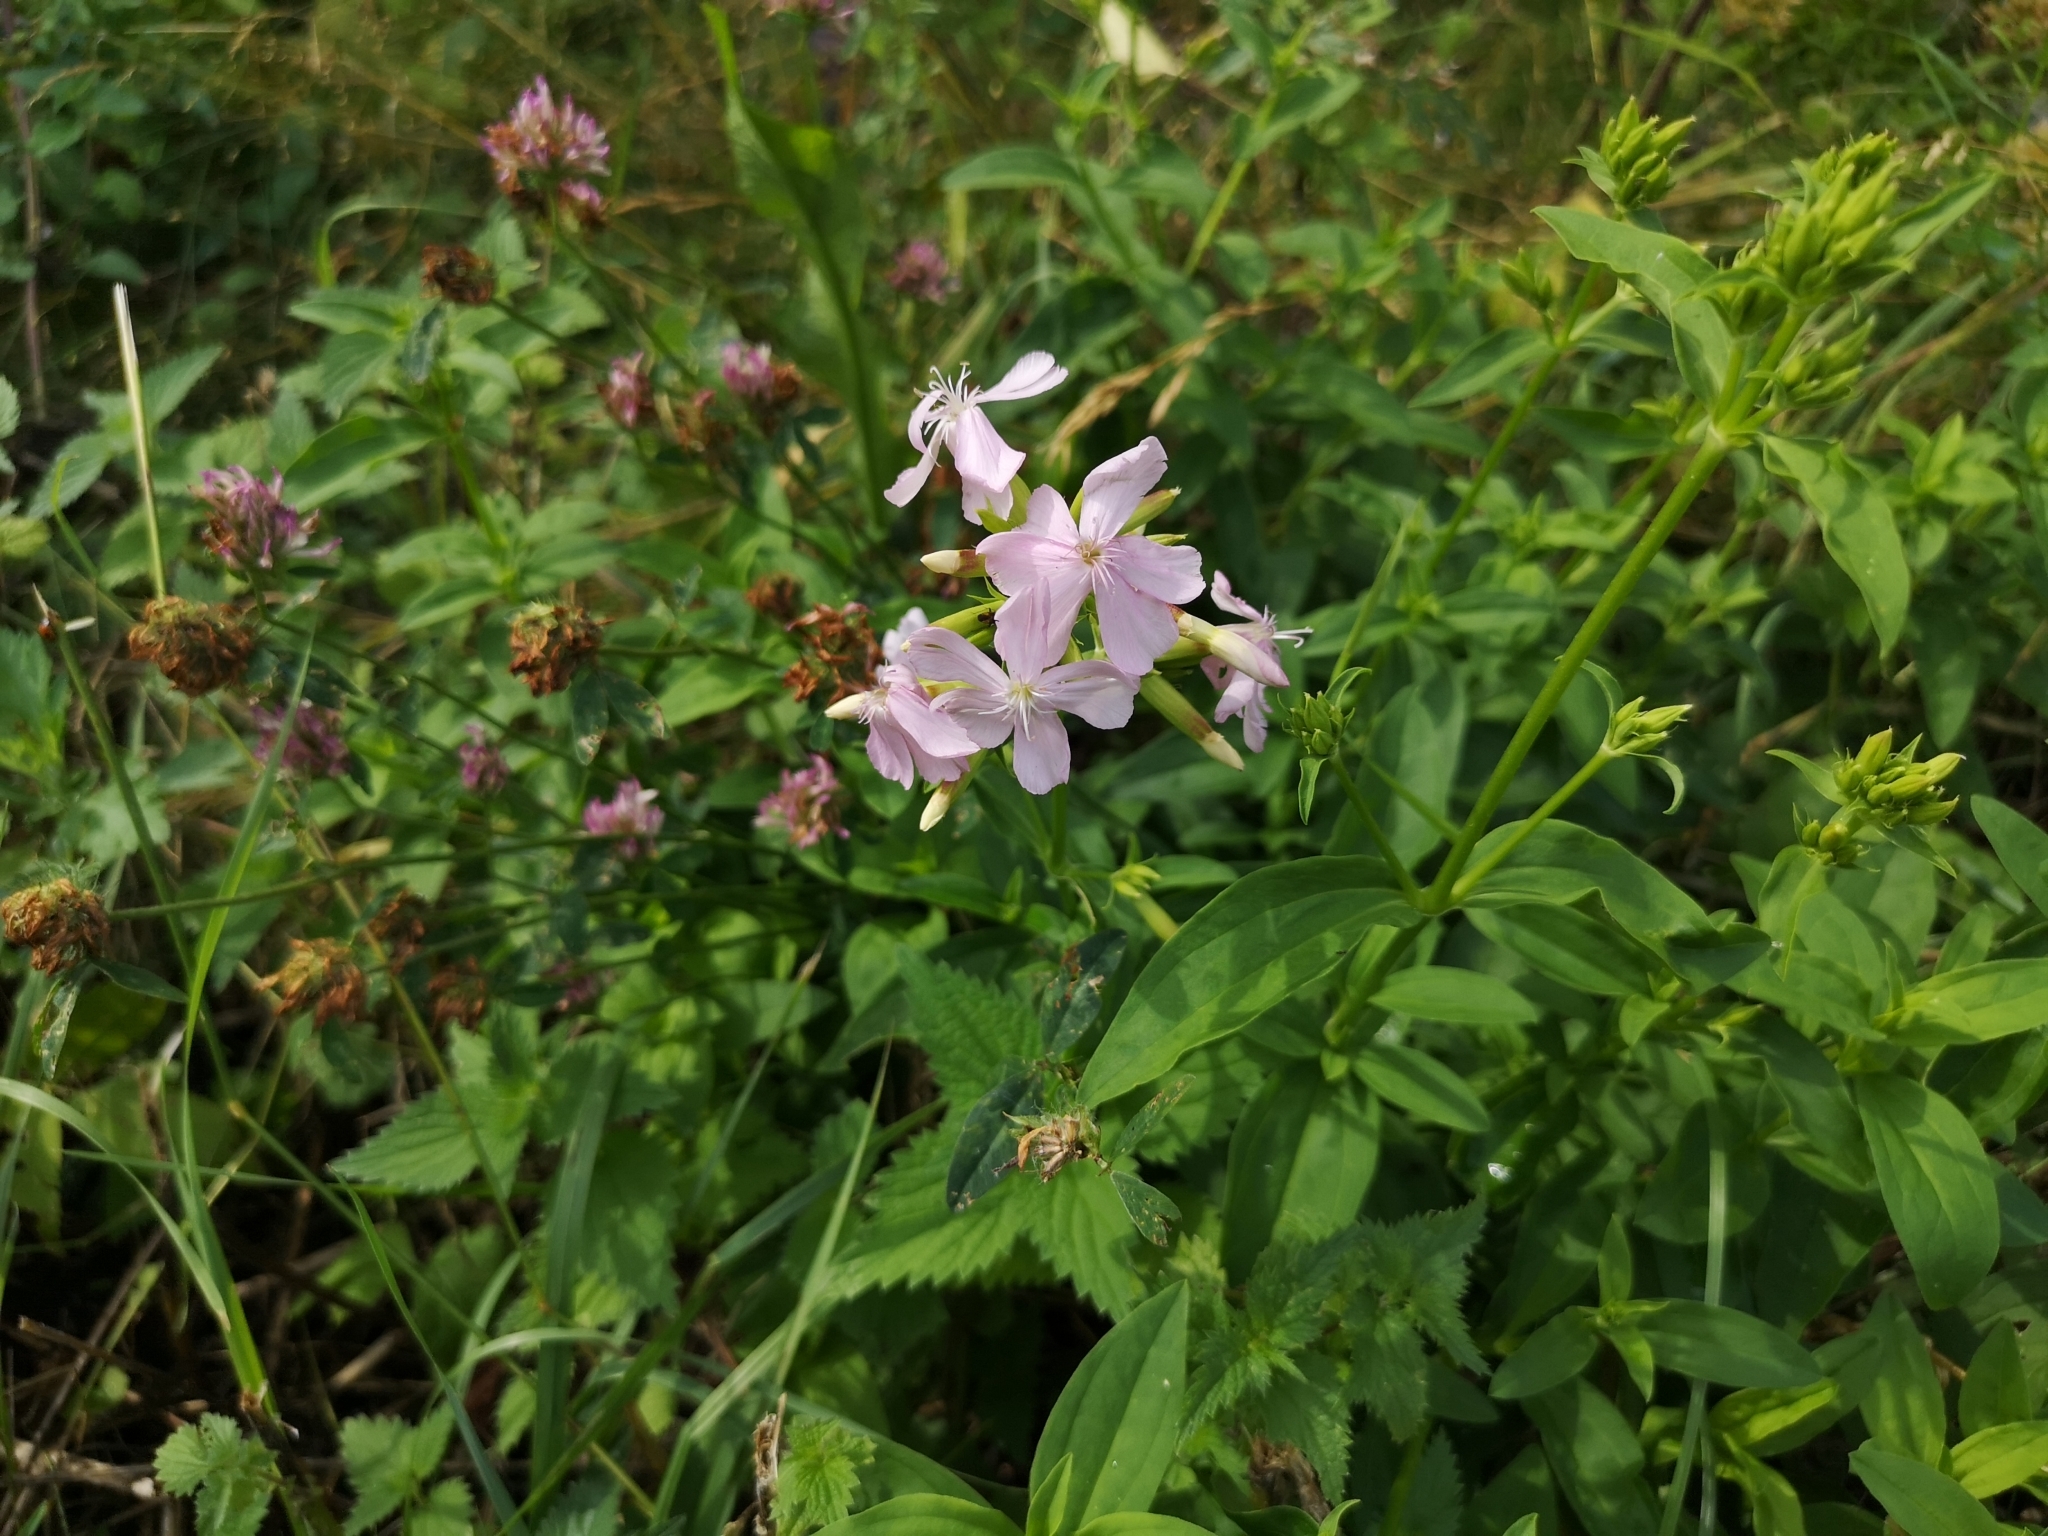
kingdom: Plantae
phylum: Tracheophyta
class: Magnoliopsida
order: Caryophyllales
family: Caryophyllaceae
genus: Saponaria
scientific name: Saponaria officinalis
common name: Soapwort
